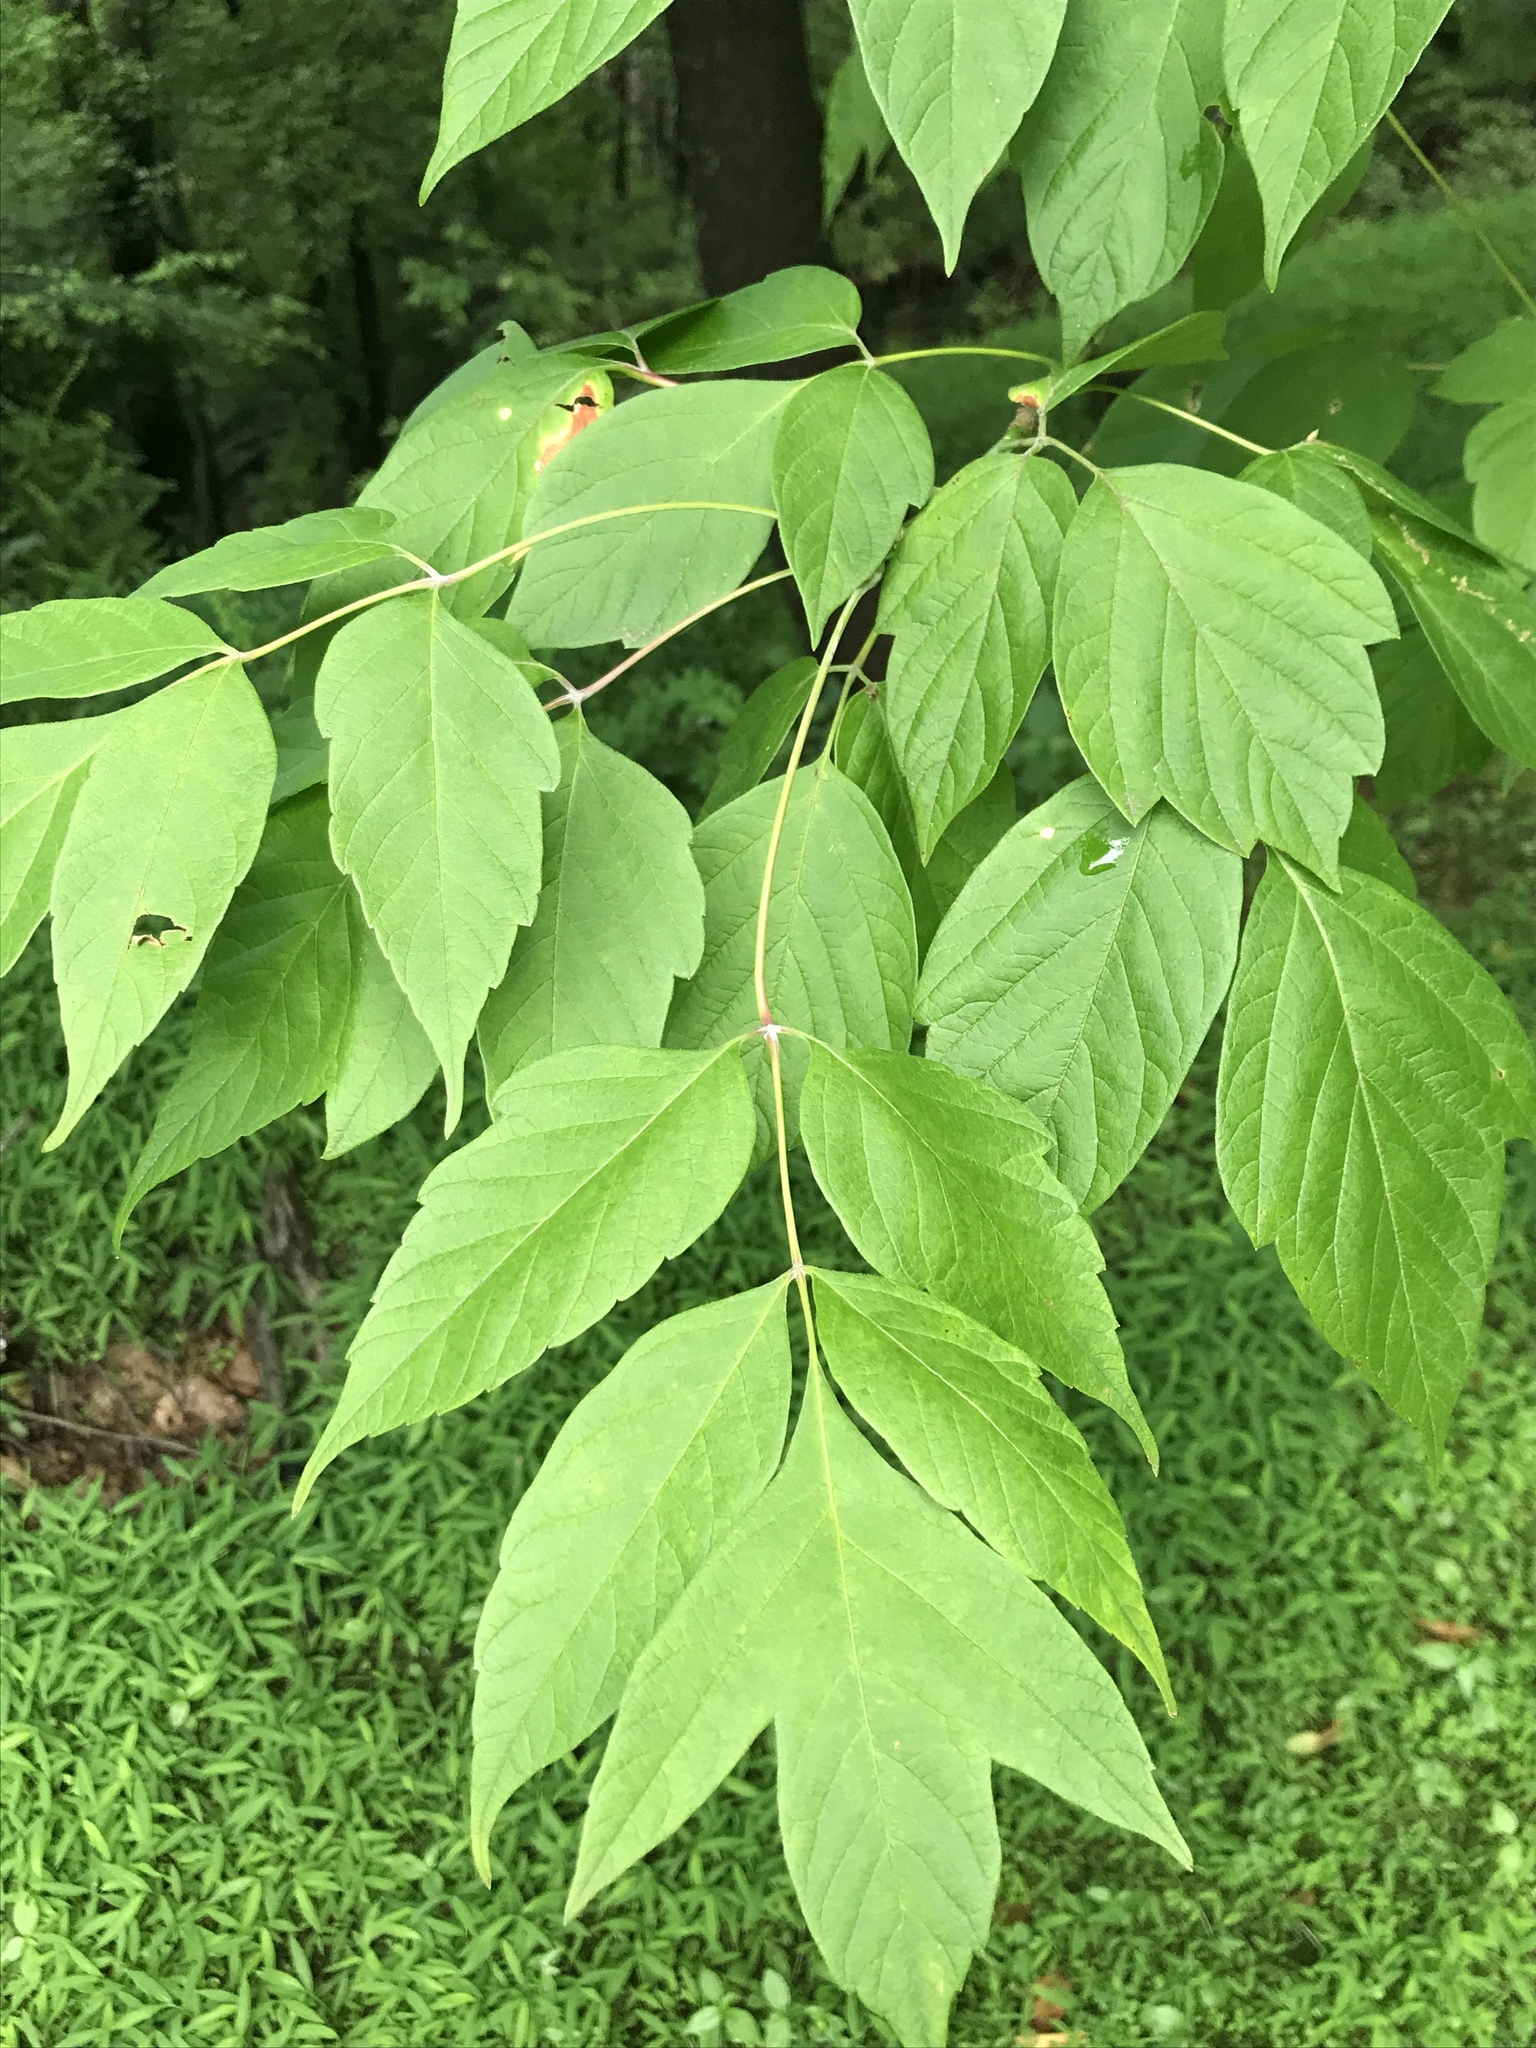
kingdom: Plantae
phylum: Tracheophyta
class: Magnoliopsida
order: Sapindales
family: Sapindaceae
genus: Acer
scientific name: Acer negundo
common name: Ashleaf maple
